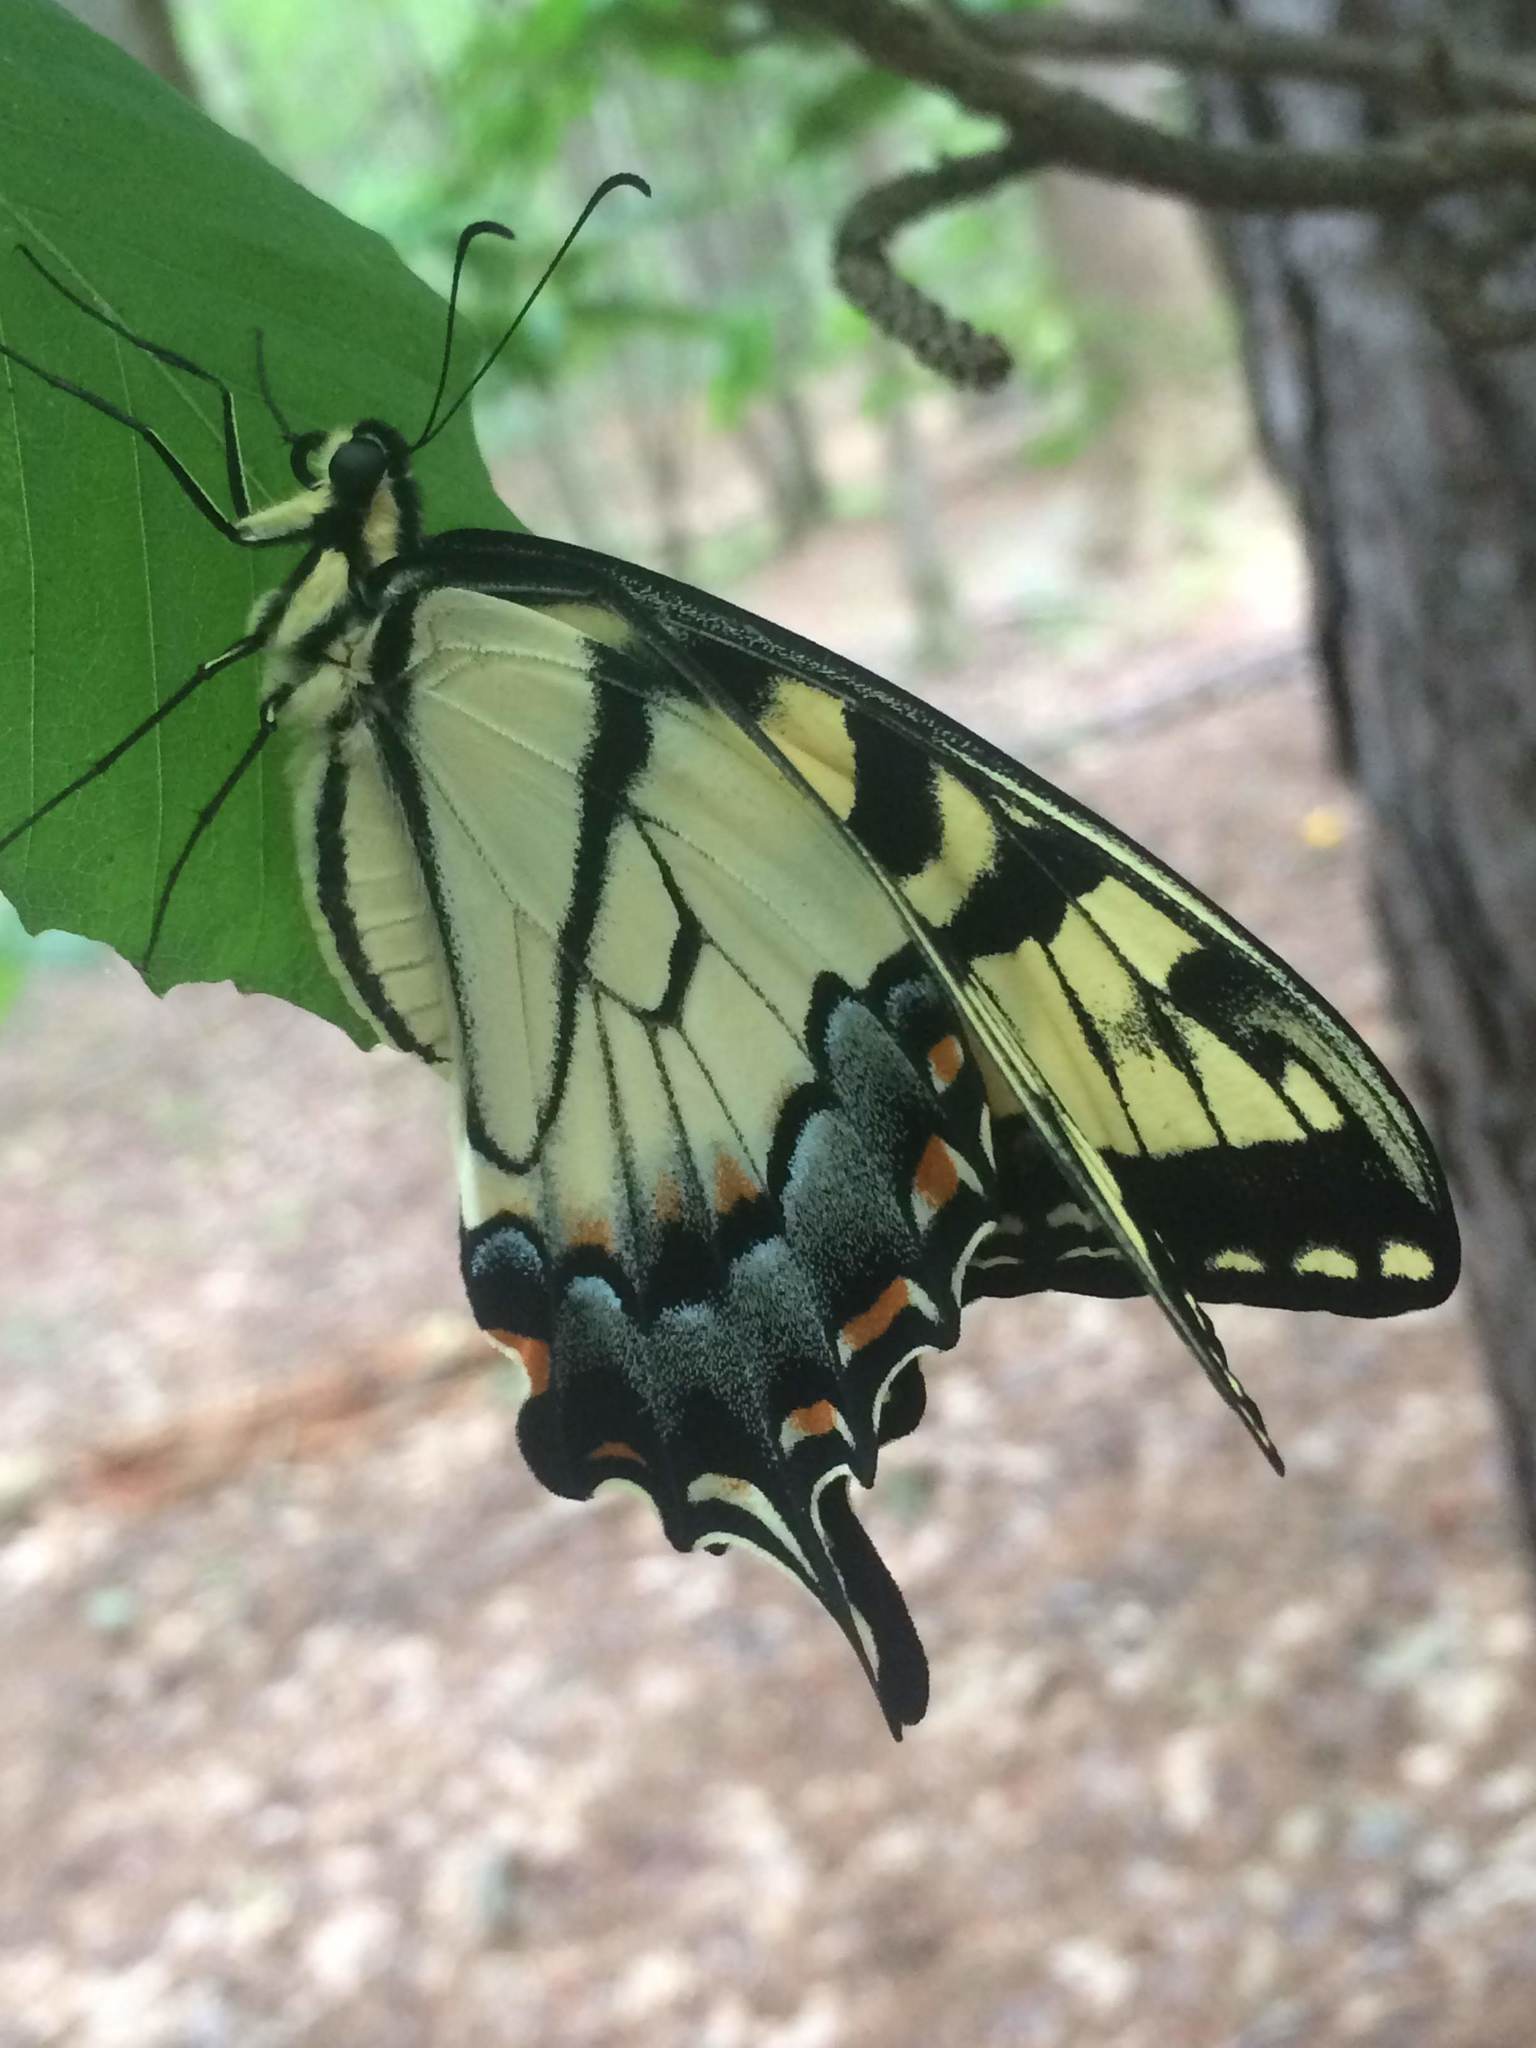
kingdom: Animalia
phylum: Arthropoda
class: Insecta
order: Lepidoptera
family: Papilionidae
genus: Papilio
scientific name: Papilio glaucus
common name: Tiger swallowtail
